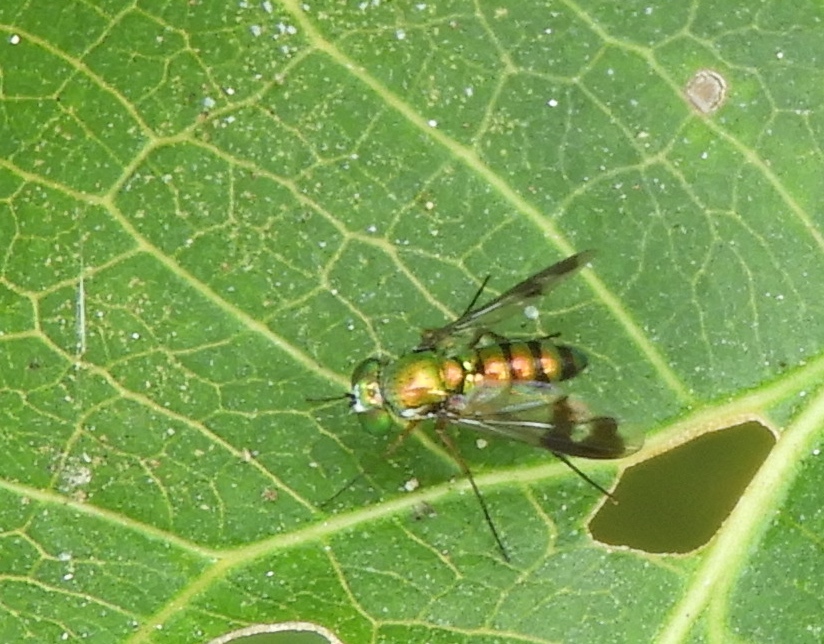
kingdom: Animalia
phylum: Arthropoda
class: Insecta
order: Diptera
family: Dolichopodidae
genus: Condylostylus
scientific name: Condylostylus
